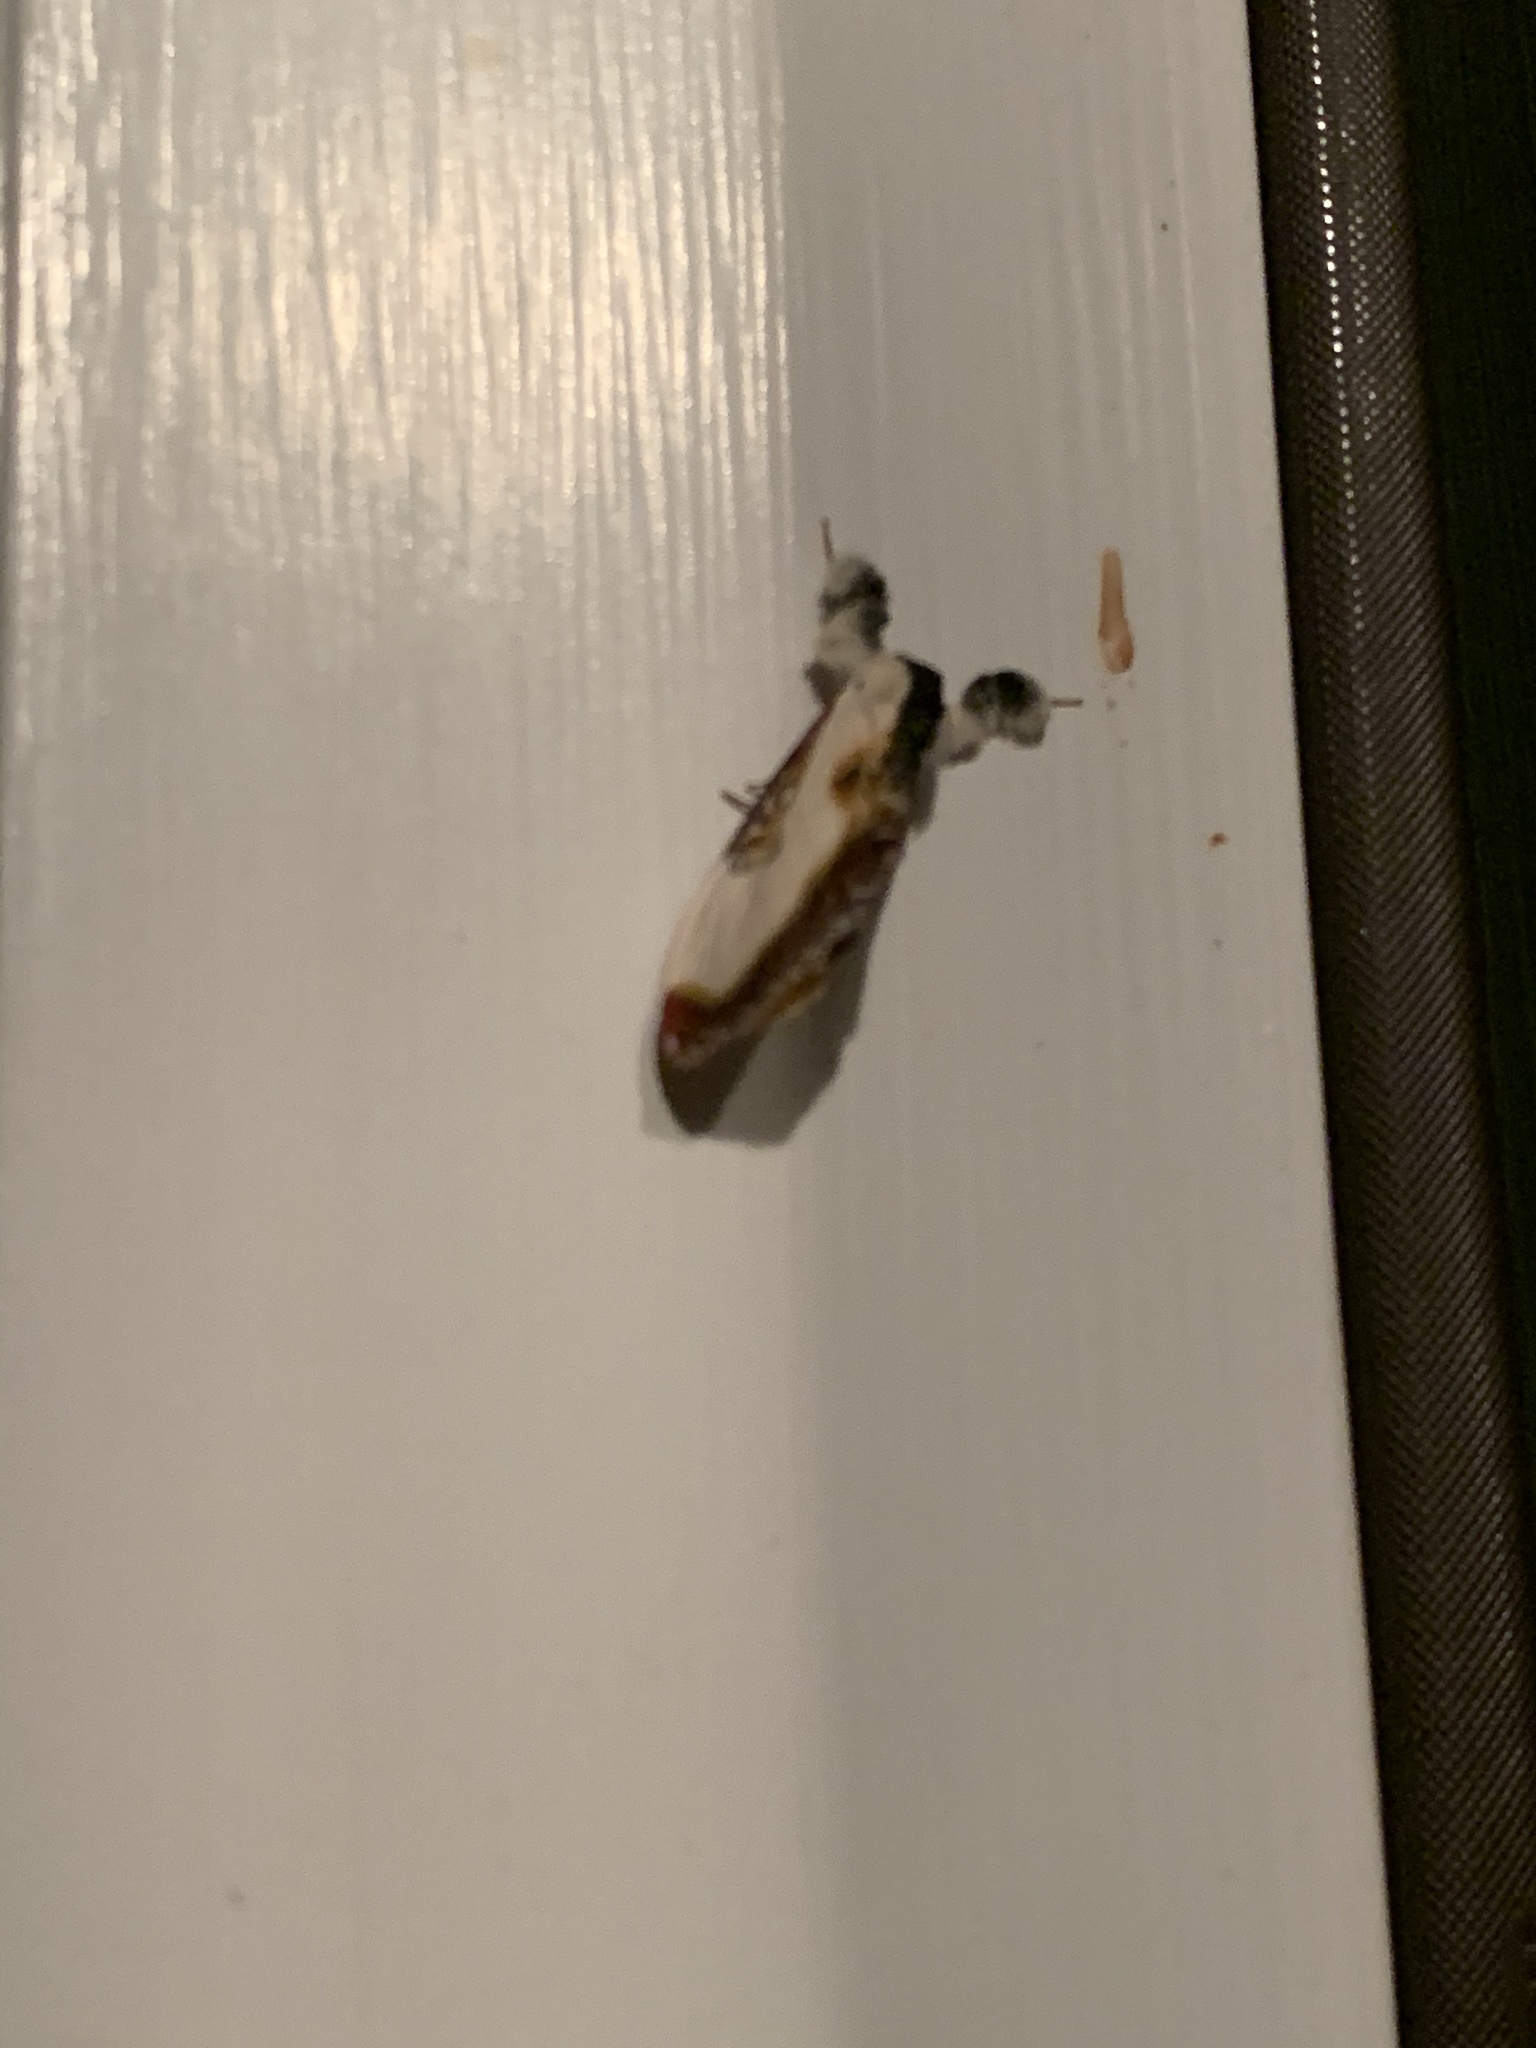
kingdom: Animalia
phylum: Arthropoda
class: Insecta
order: Lepidoptera
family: Noctuidae
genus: Eudryas
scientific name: Eudryas grata
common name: Beautiful wood-nymph
